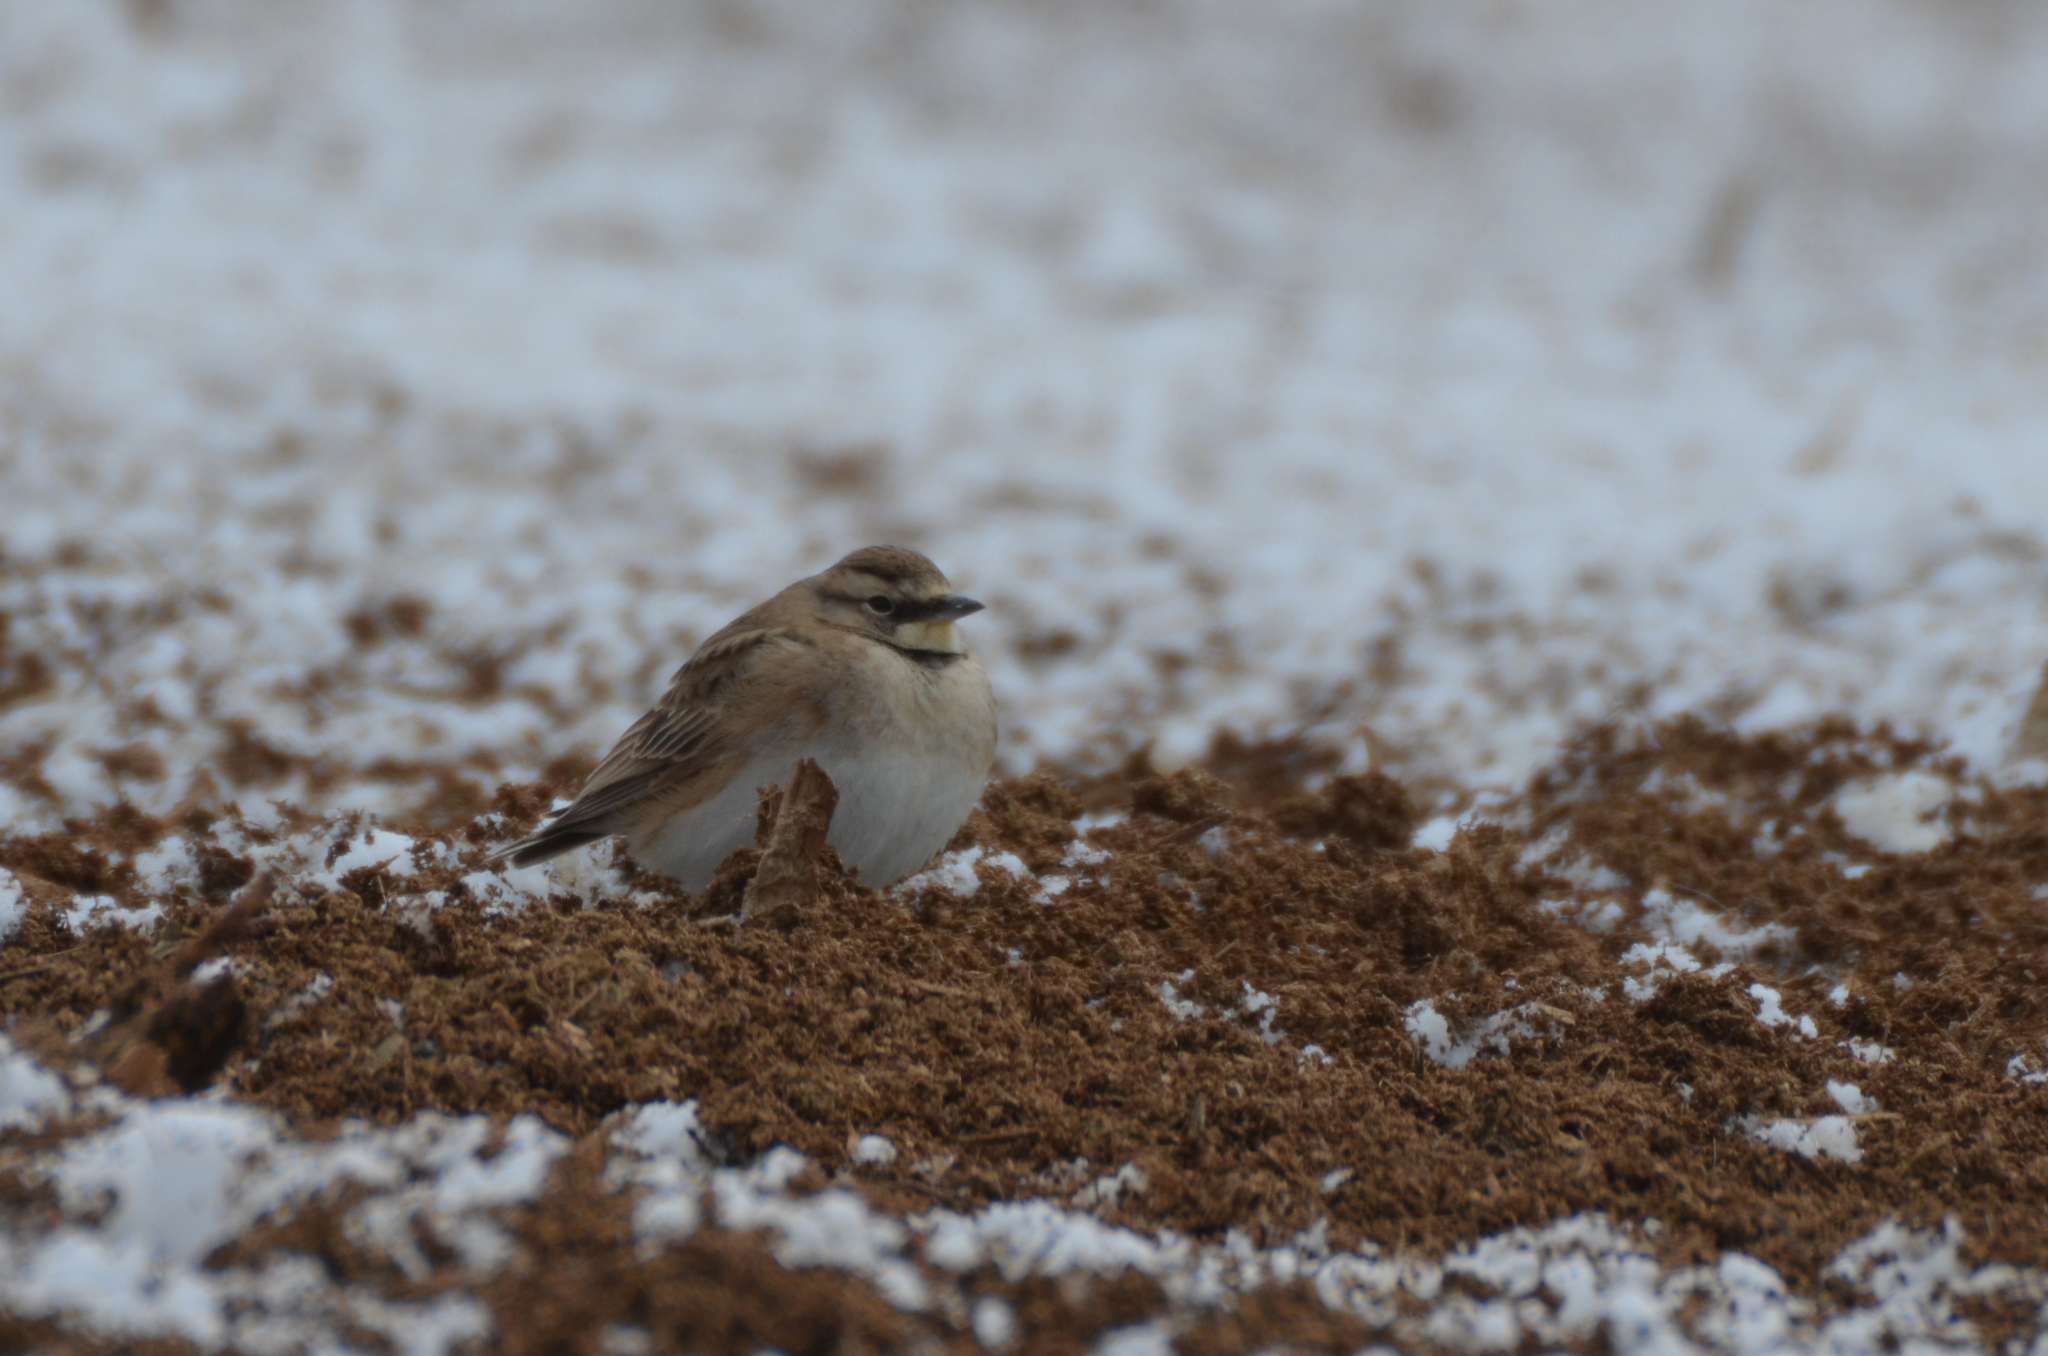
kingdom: Animalia
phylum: Chordata
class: Aves
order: Passeriformes
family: Alaudidae
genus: Eremophila
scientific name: Eremophila alpestris
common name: Horned lark
